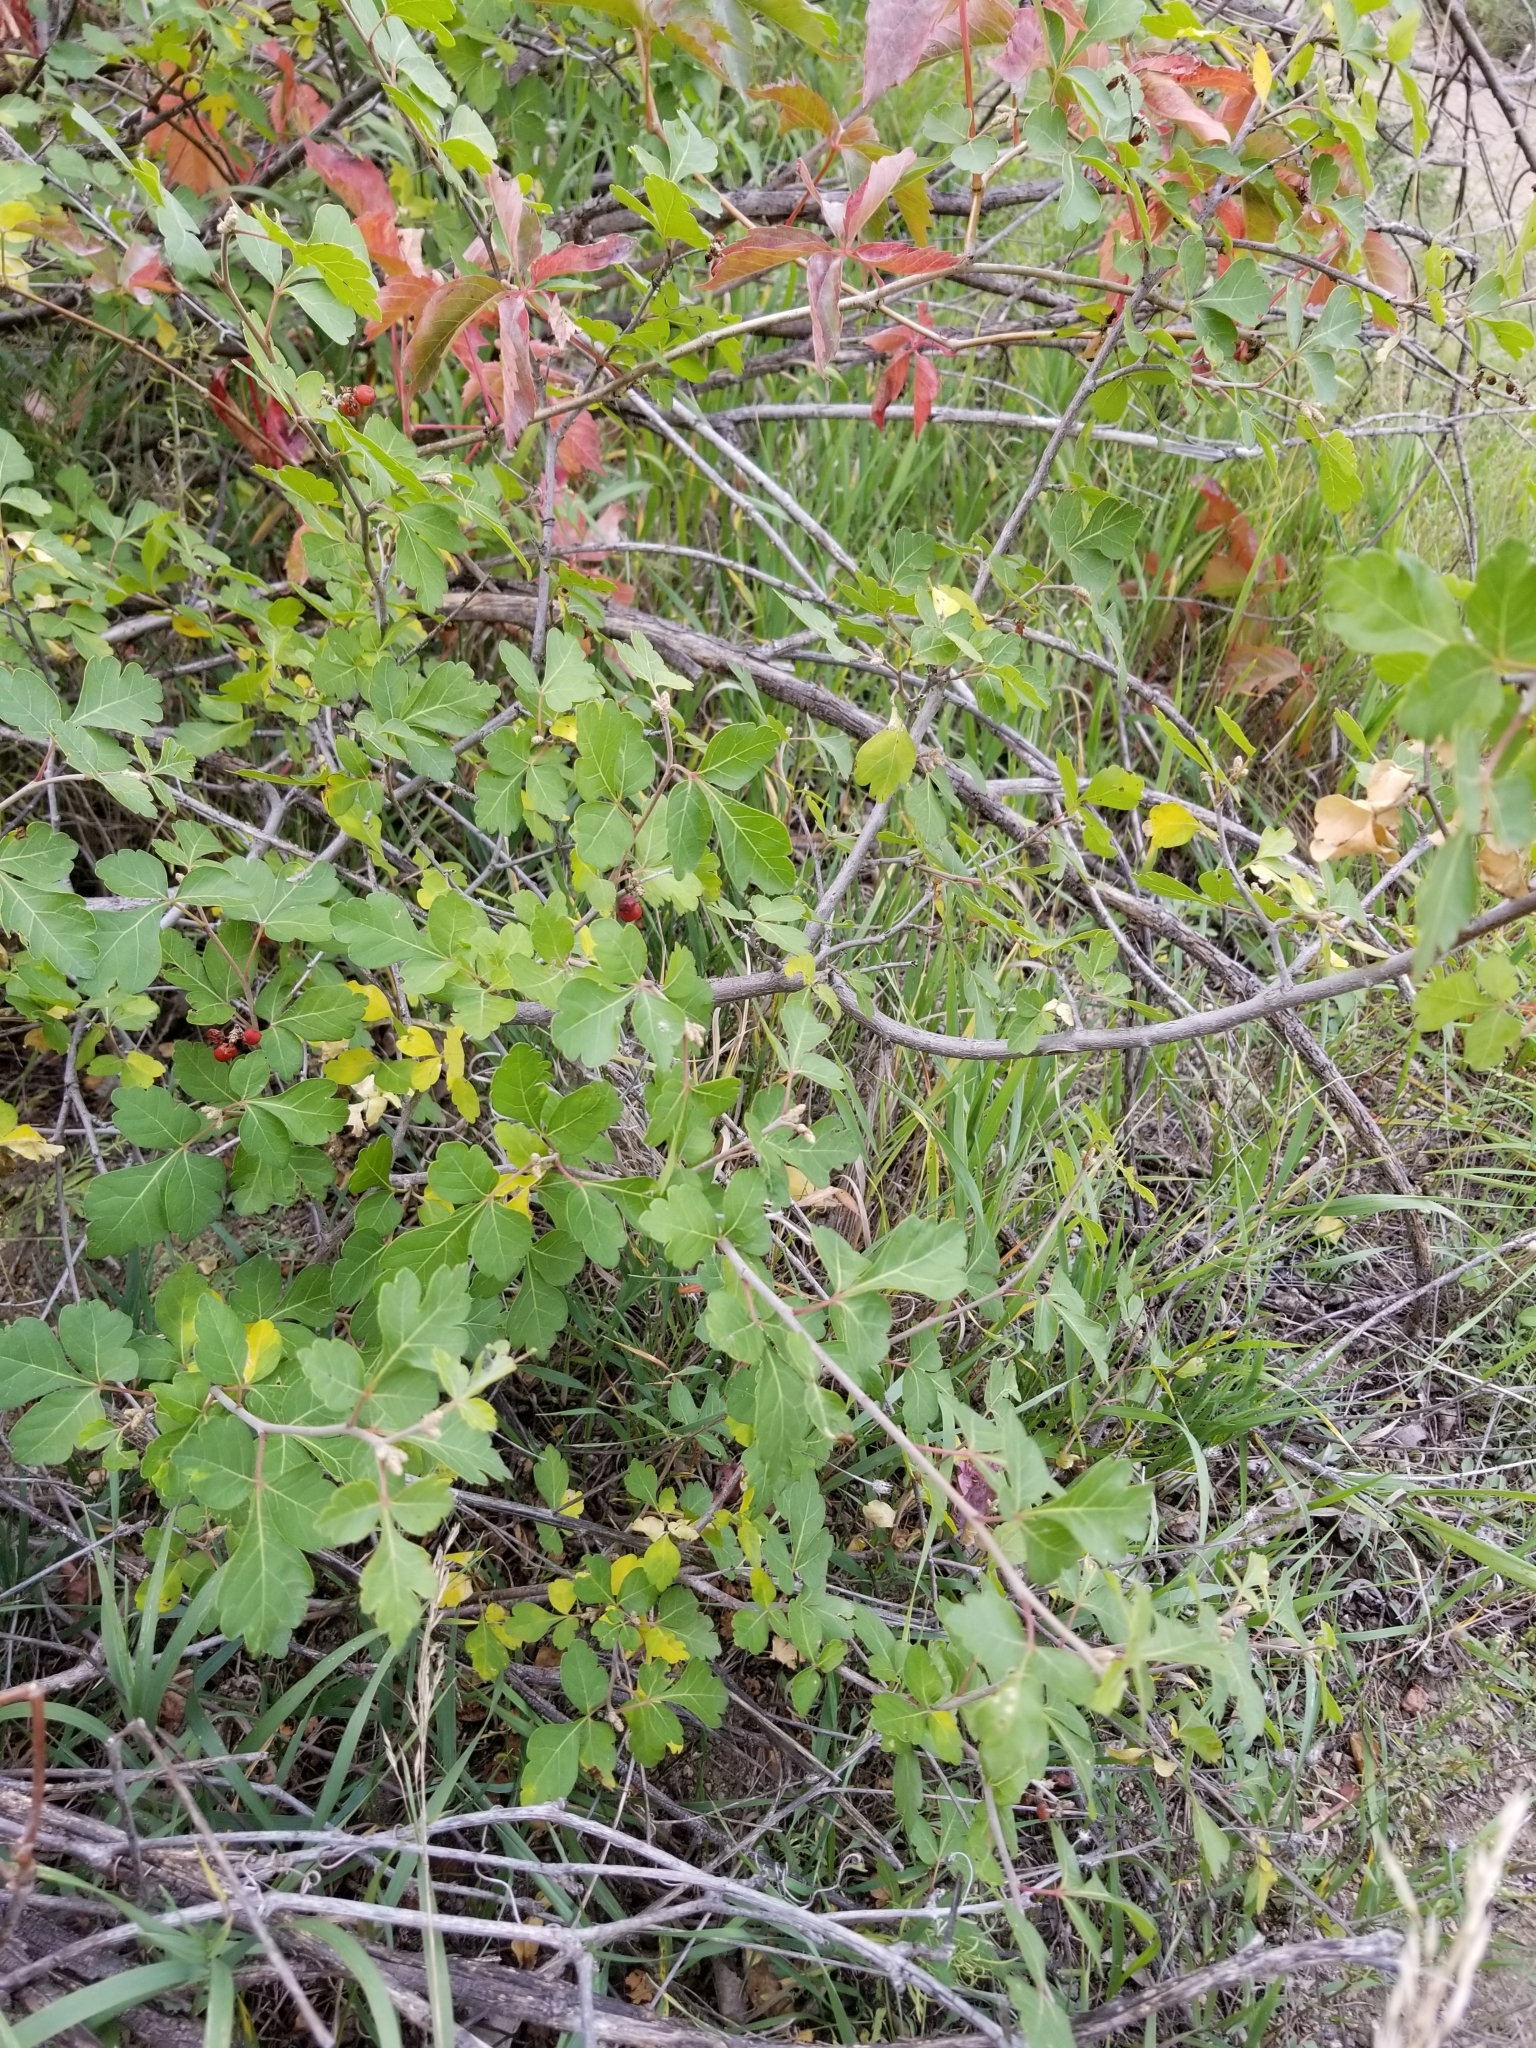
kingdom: Plantae
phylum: Tracheophyta
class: Magnoliopsida
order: Sapindales
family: Anacardiaceae
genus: Rhus
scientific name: Rhus aromatica
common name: Aromatic sumac
